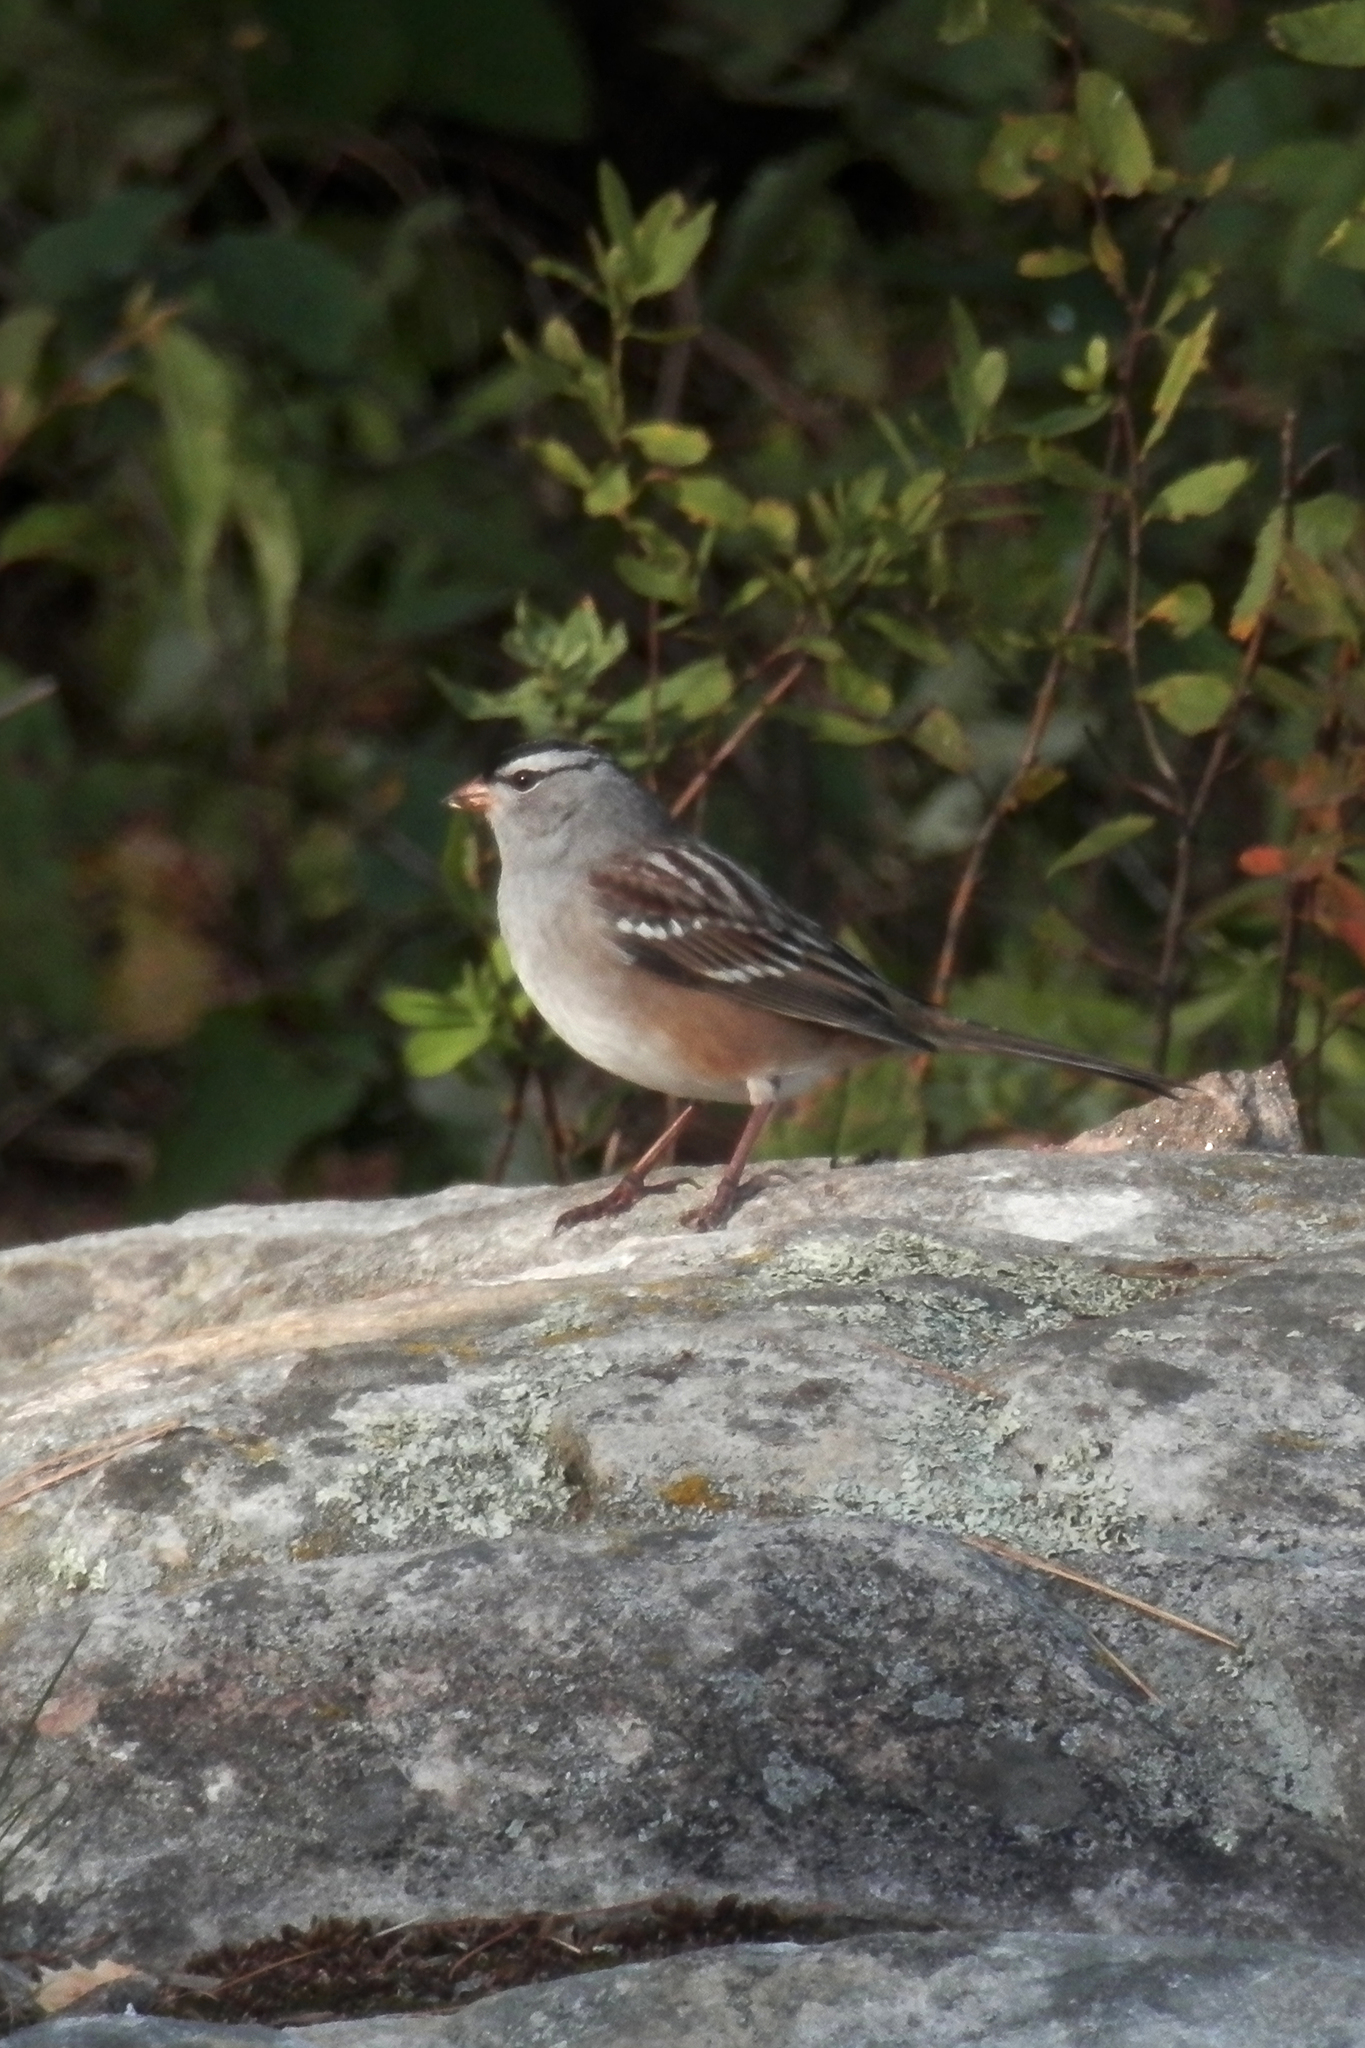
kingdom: Animalia
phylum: Chordata
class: Aves
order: Passeriformes
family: Passerellidae
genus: Zonotrichia
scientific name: Zonotrichia leucophrys
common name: White-crowned sparrow
